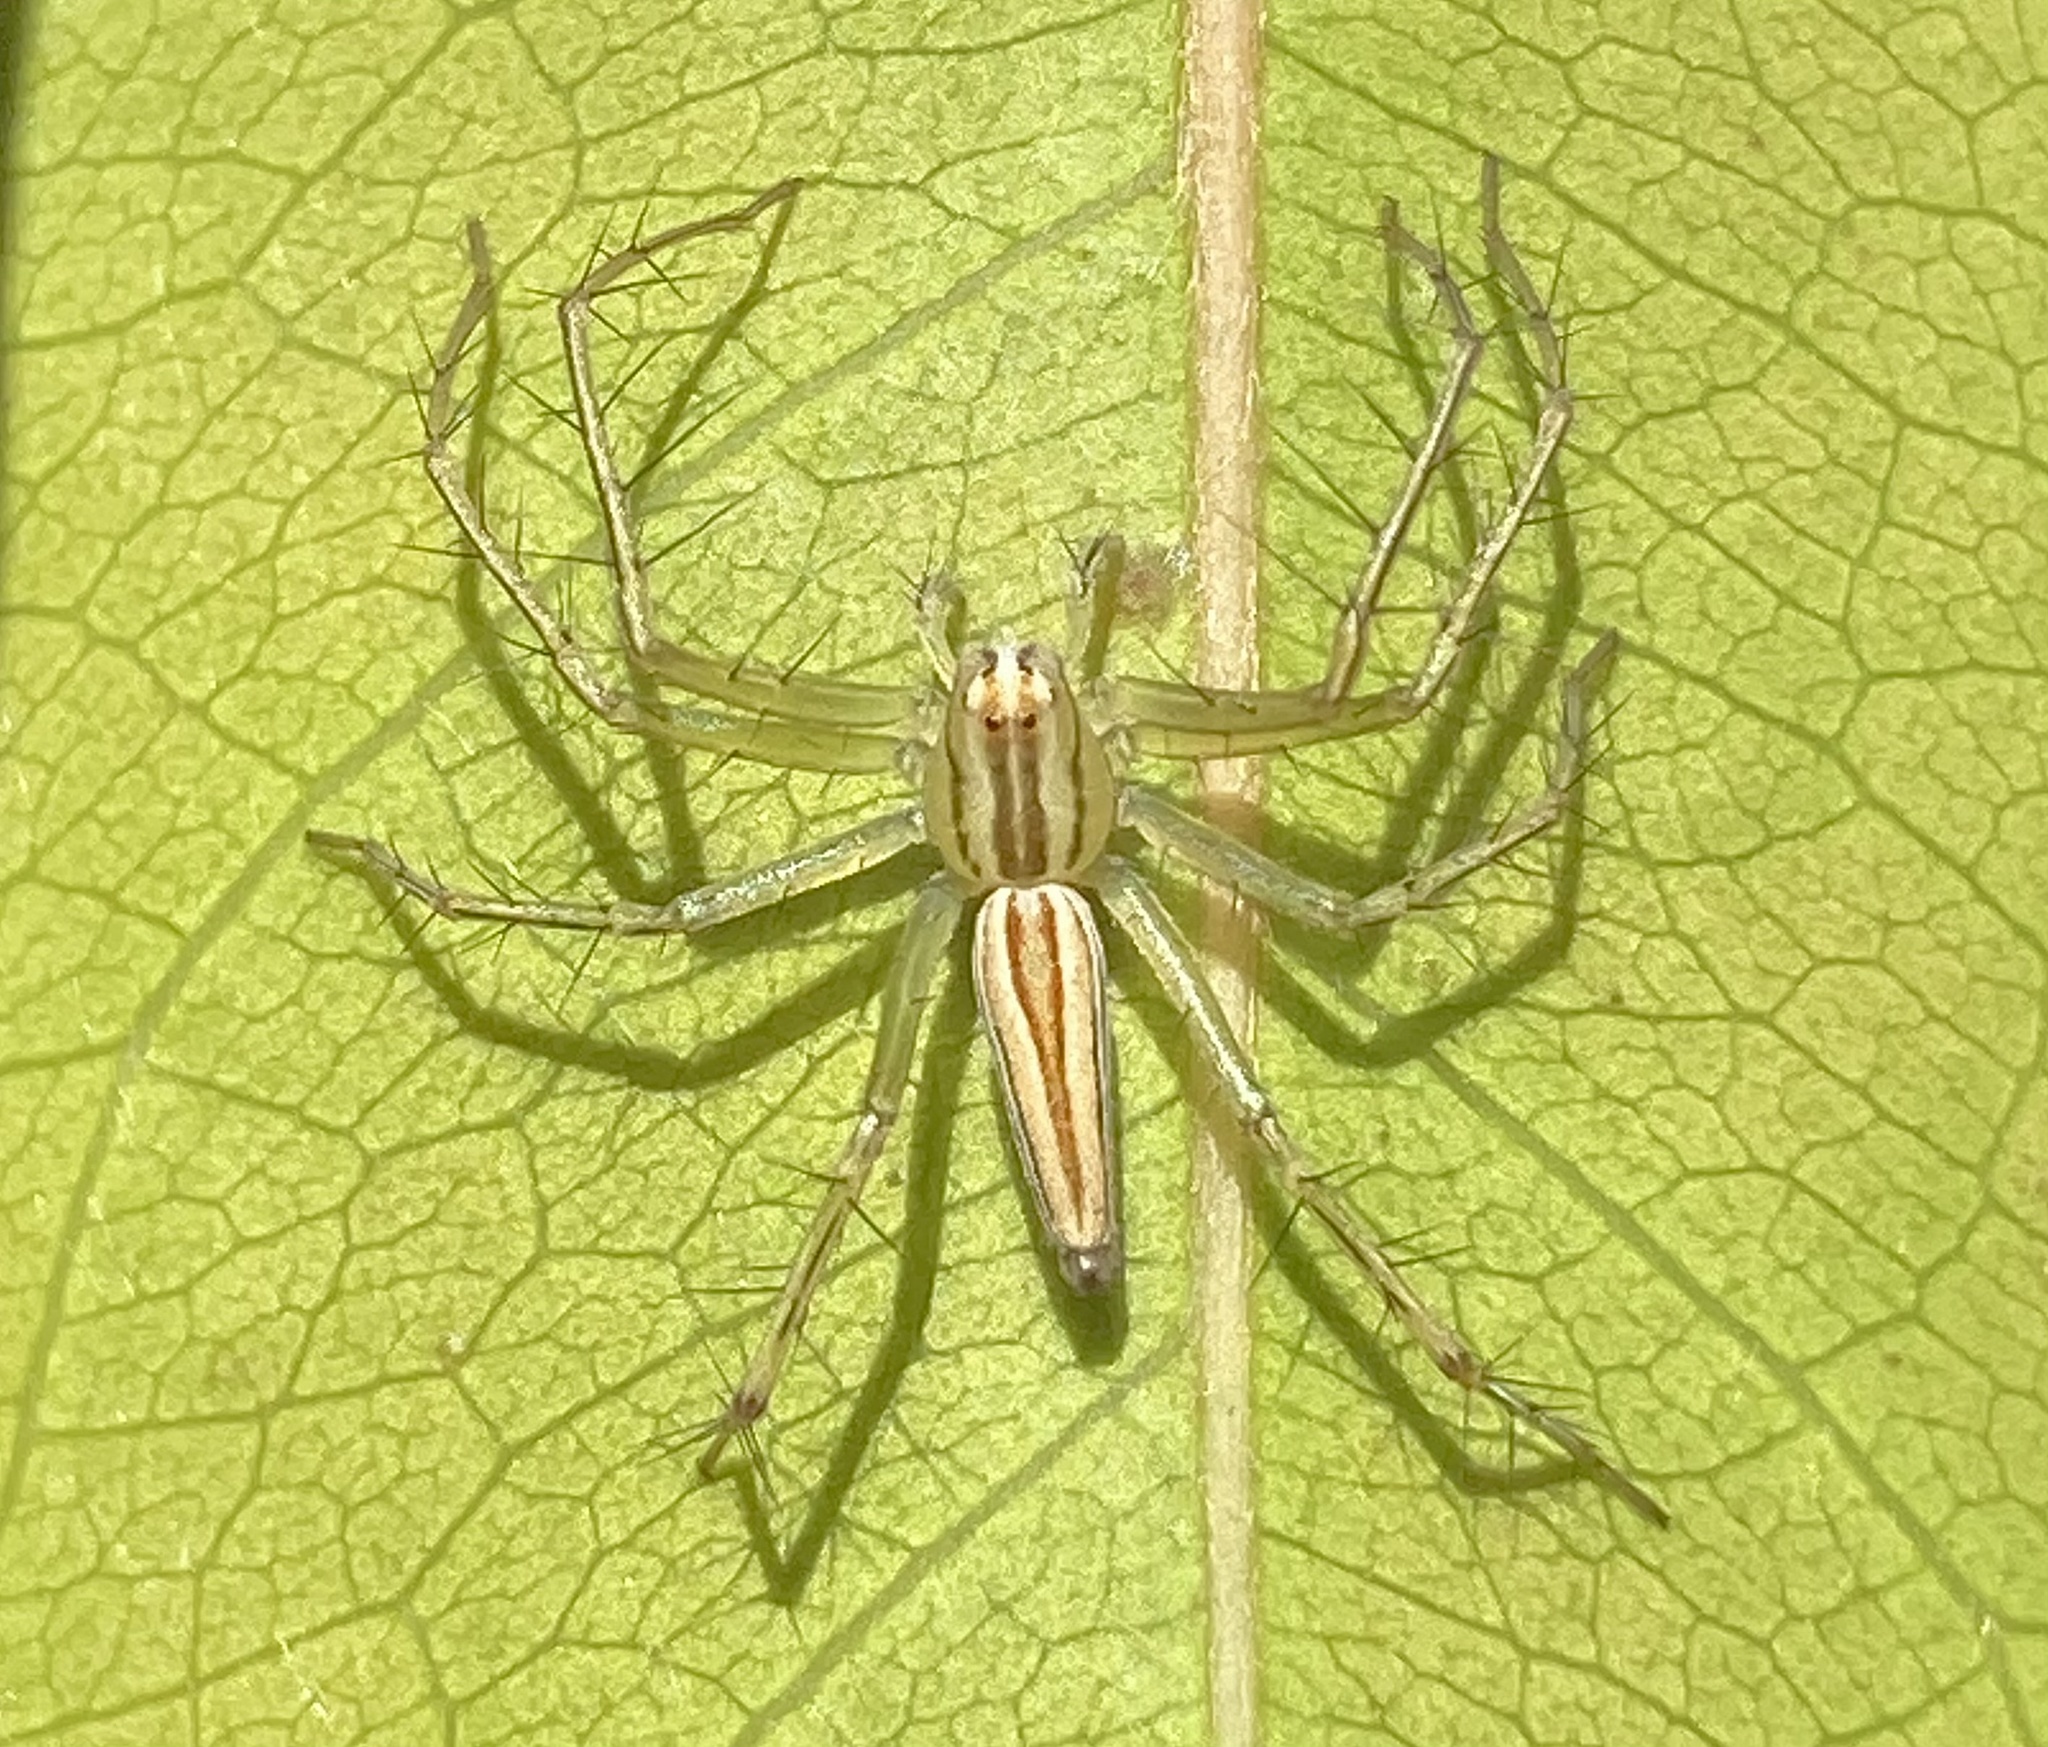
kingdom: Animalia
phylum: Arthropoda
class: Arachnida
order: Araneae
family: Oxyopidae
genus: Oxyopes
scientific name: Oxyopes macilentus
